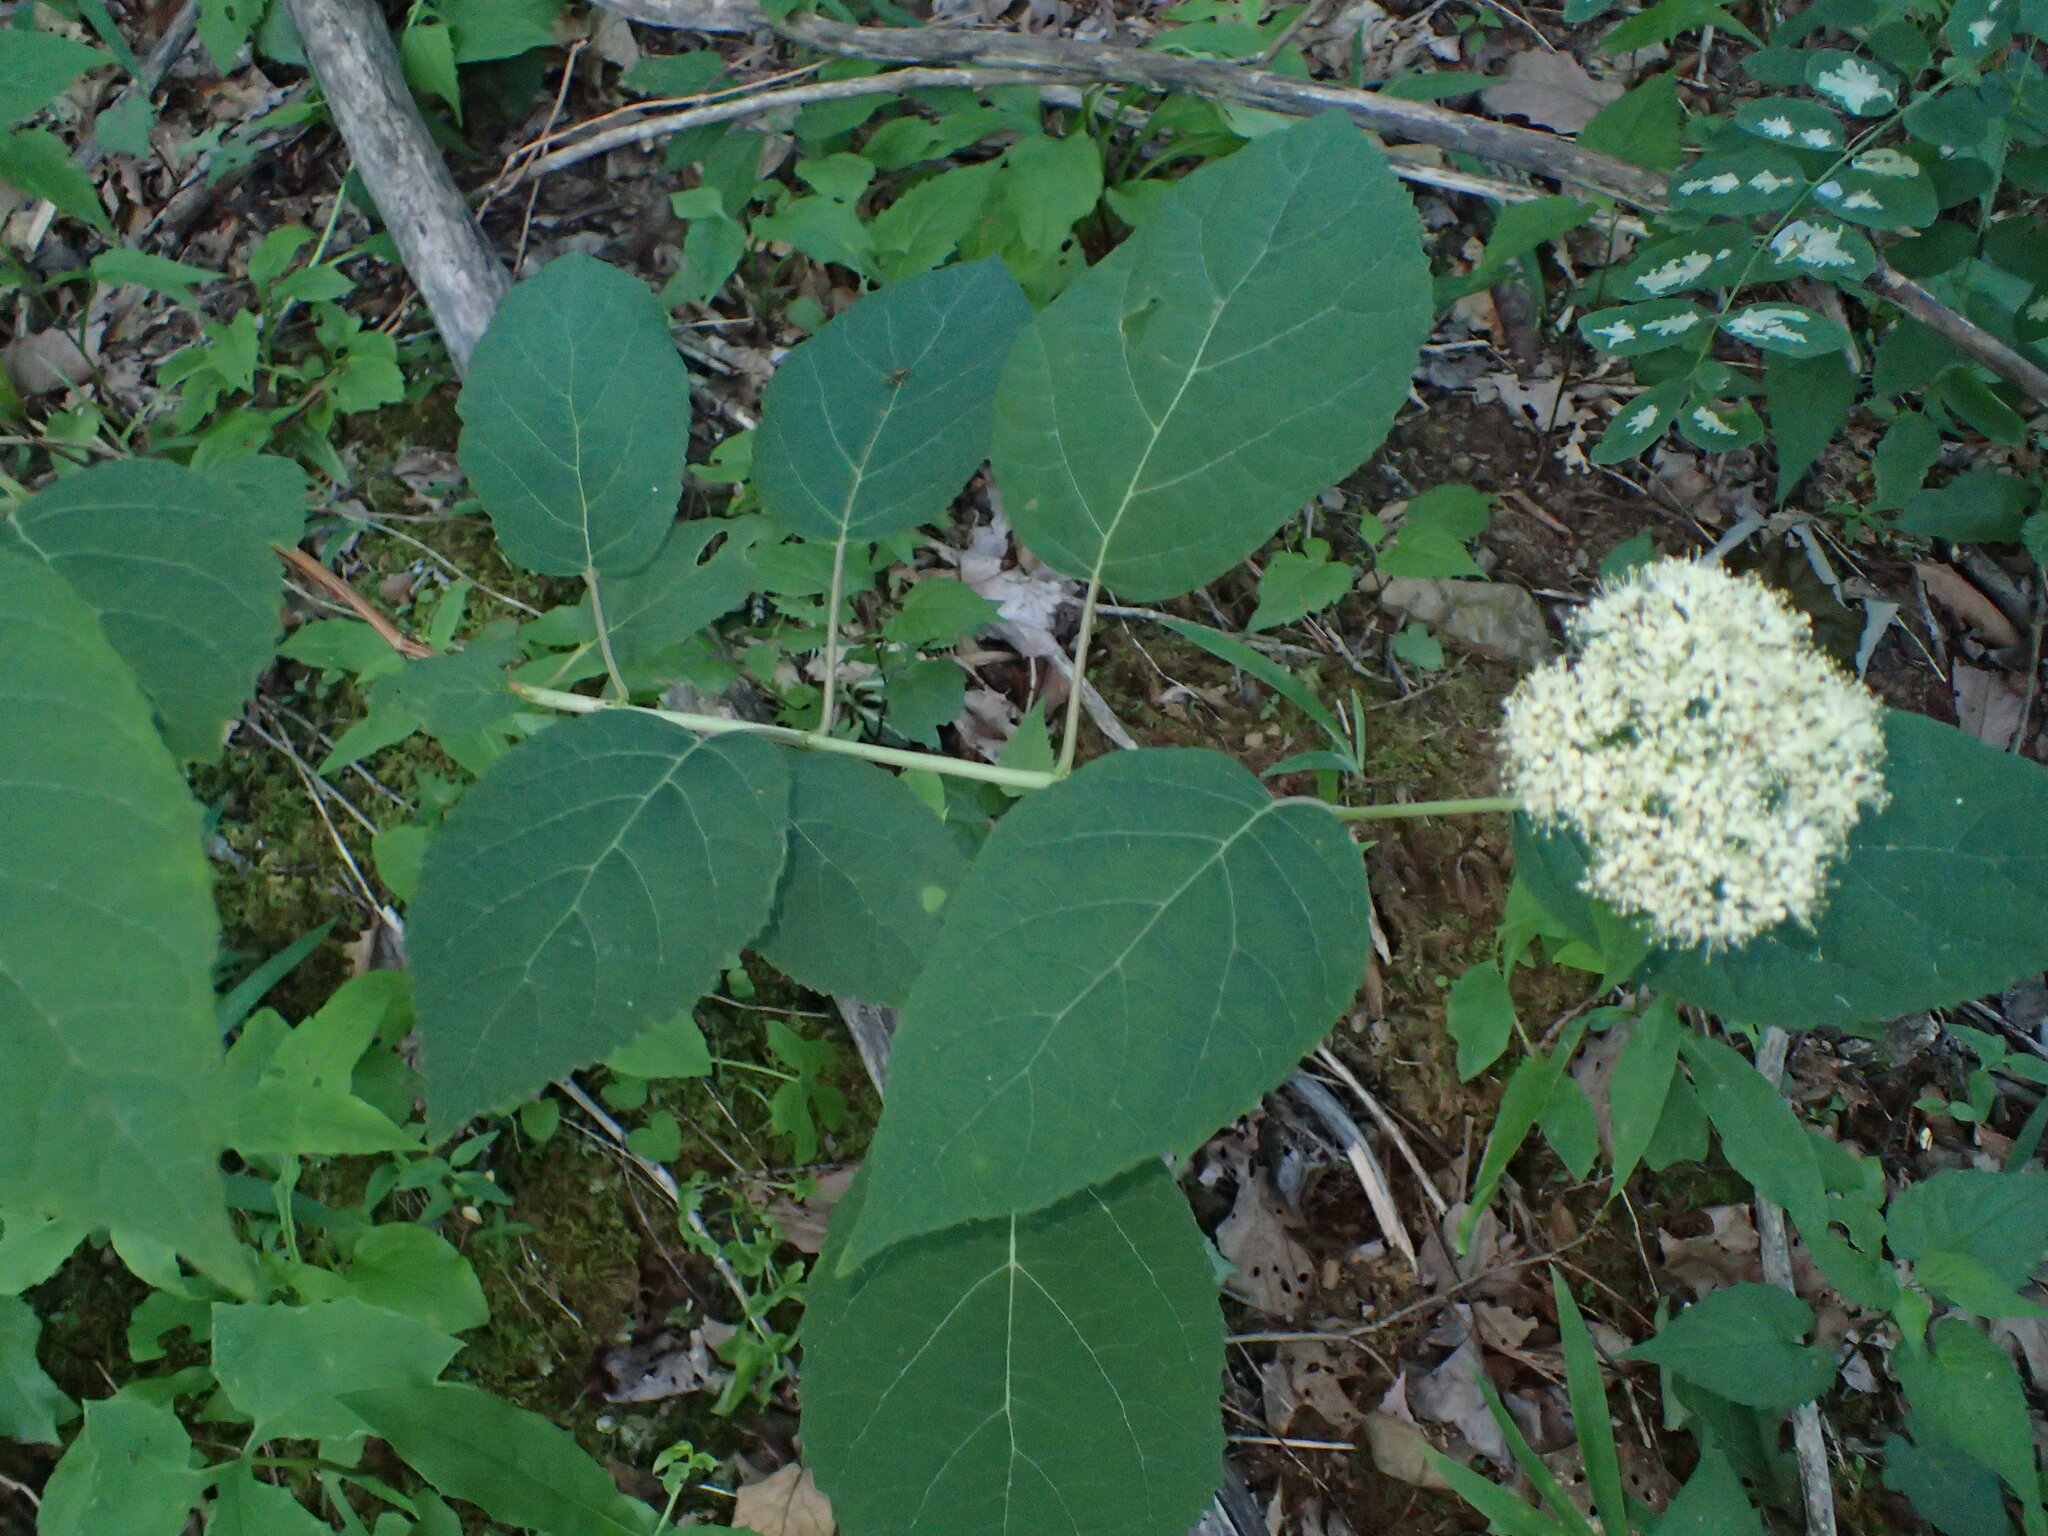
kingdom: Plantae
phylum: Tracheophyta
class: Magnoliopsida
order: Cornales
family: Hydrangeaceae
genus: Hydrangea
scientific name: Hydrangea arborescens
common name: Sevenbark
